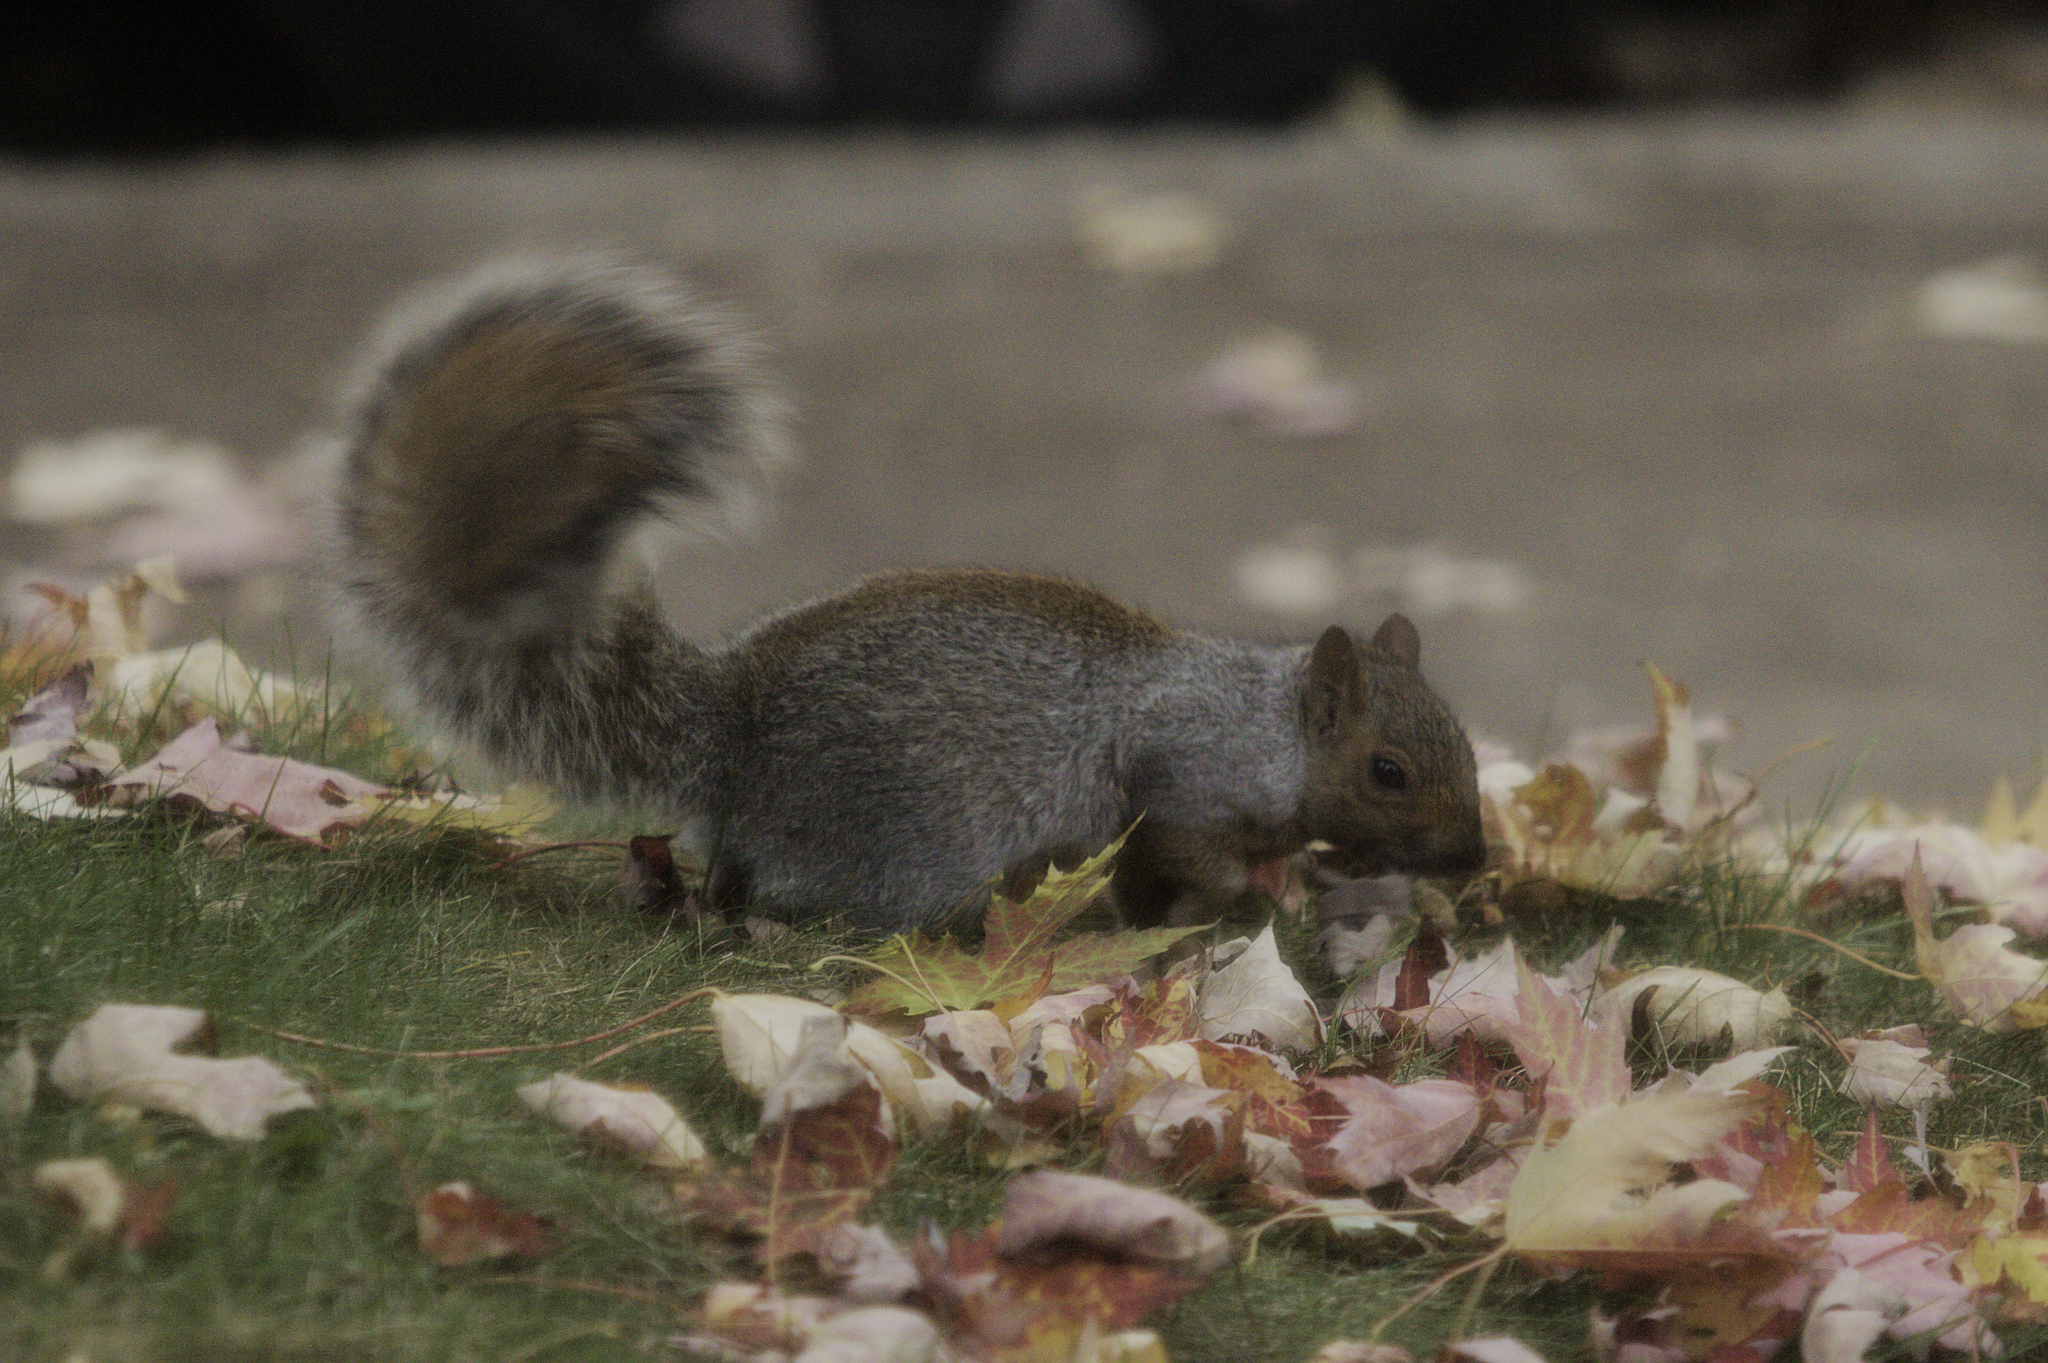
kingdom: Animalia
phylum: Chordata
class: Mammalia
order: Rodentia
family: Sciuridae
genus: Sciurus
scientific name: Sciurus carolinensis
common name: Eastern gray squirrel
